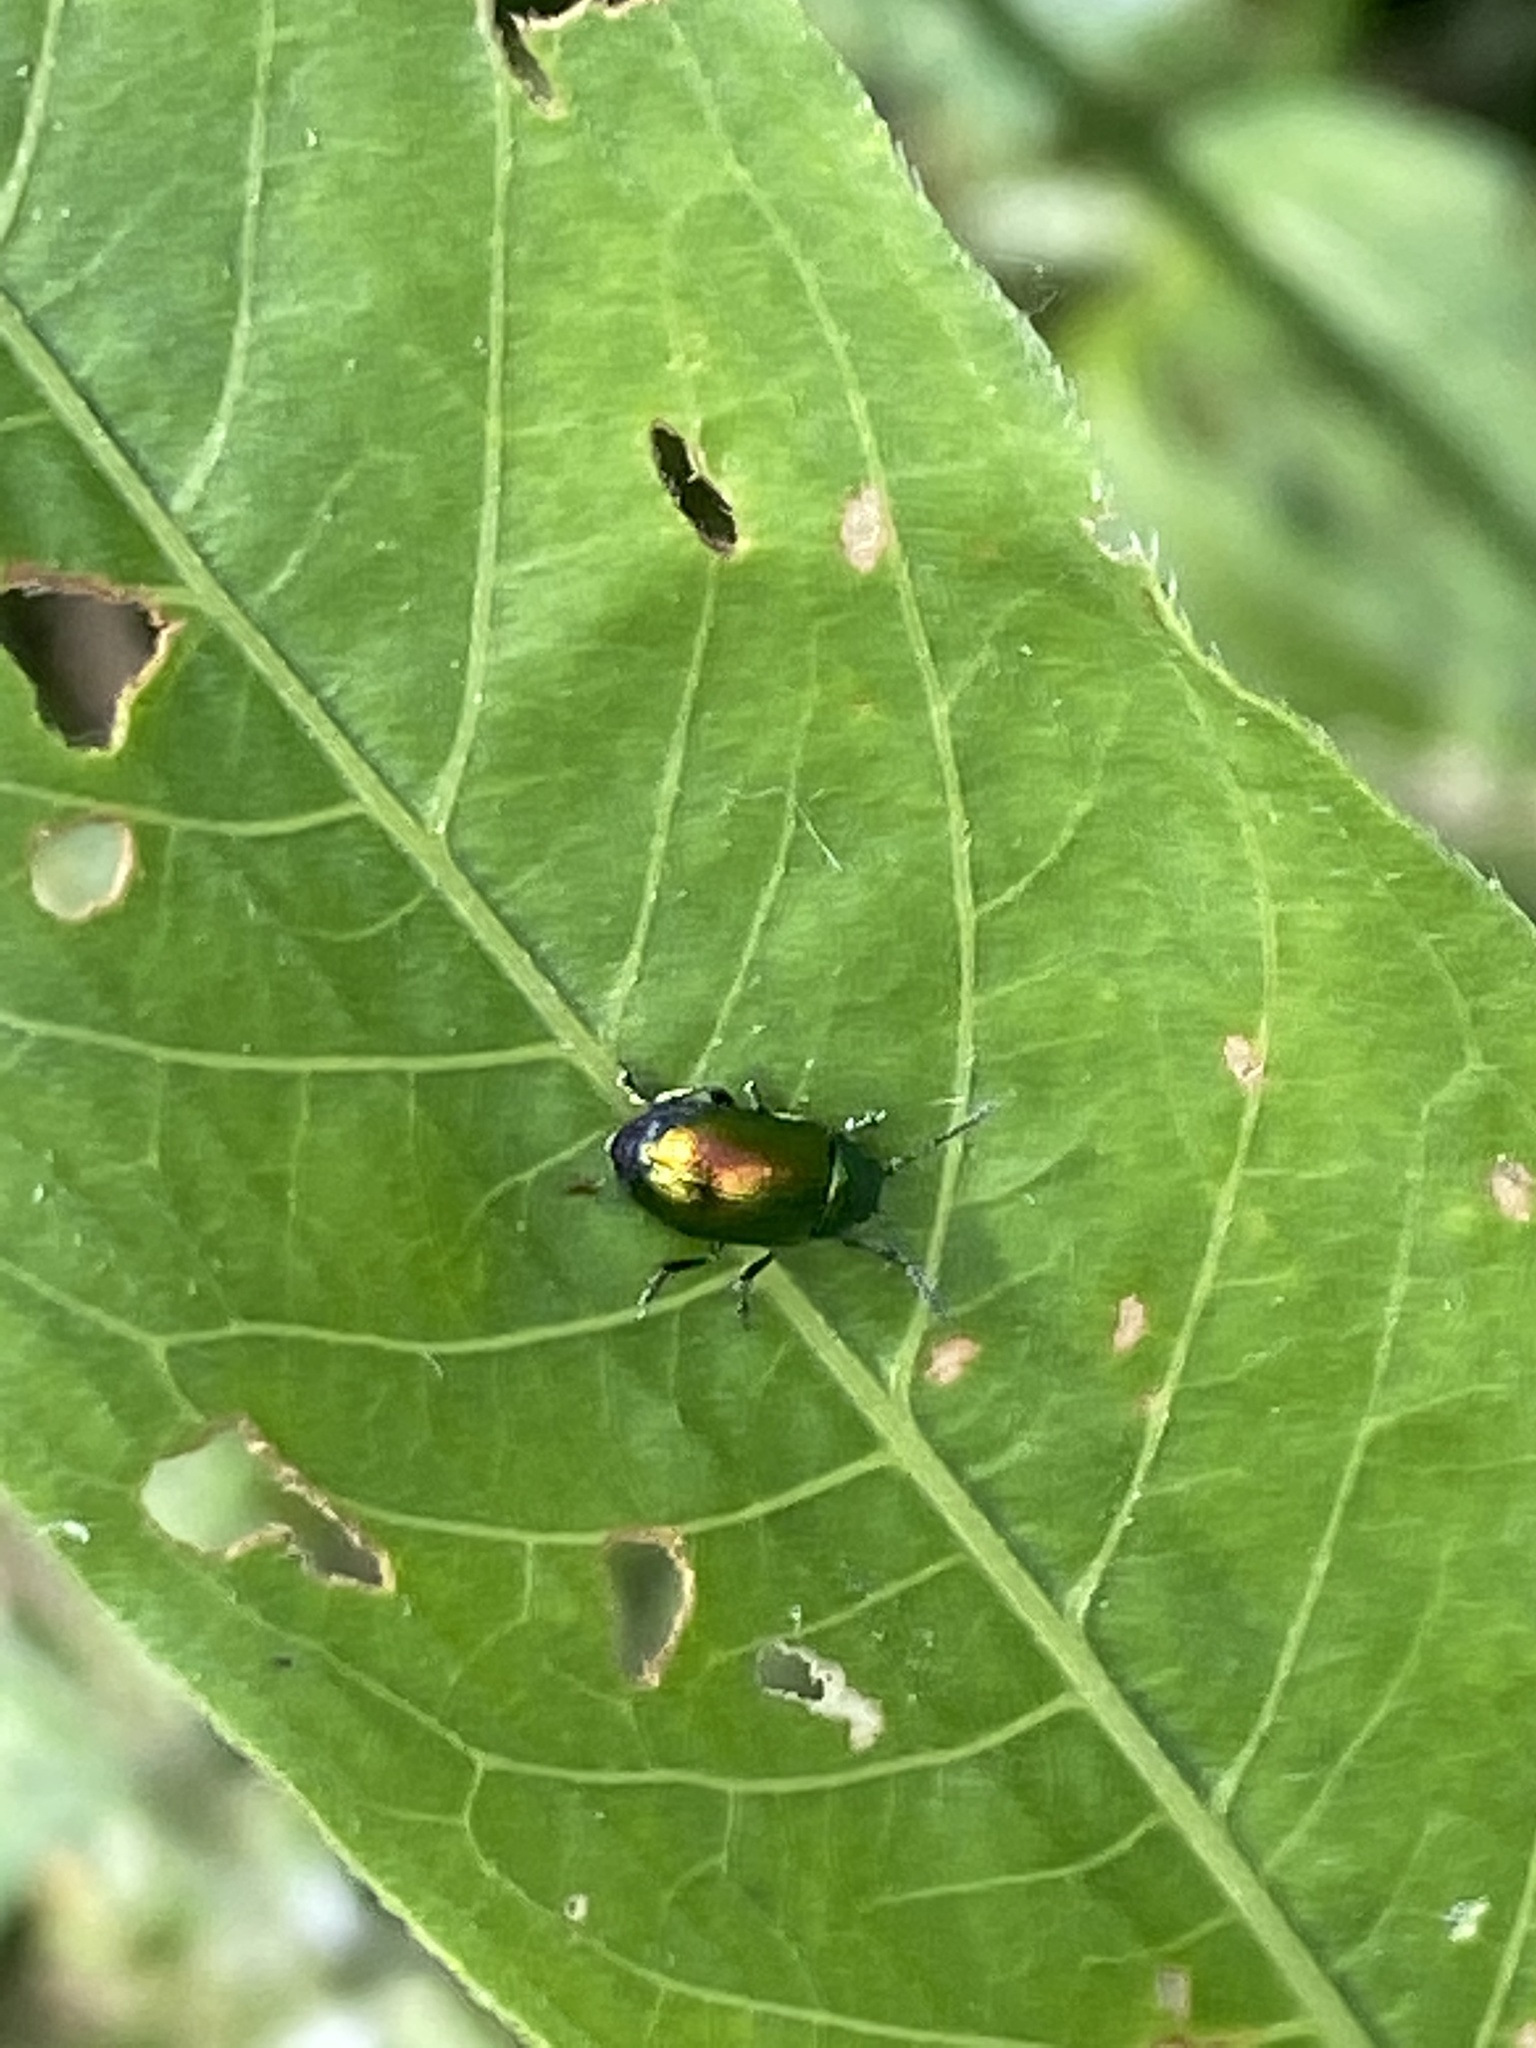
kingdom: Animalia
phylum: Arthropoda
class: Insecta
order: Coleoptera
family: Chrysomelidae
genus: Gastrophysa
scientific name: Gastrophysa viridula
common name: Green dock beetle
